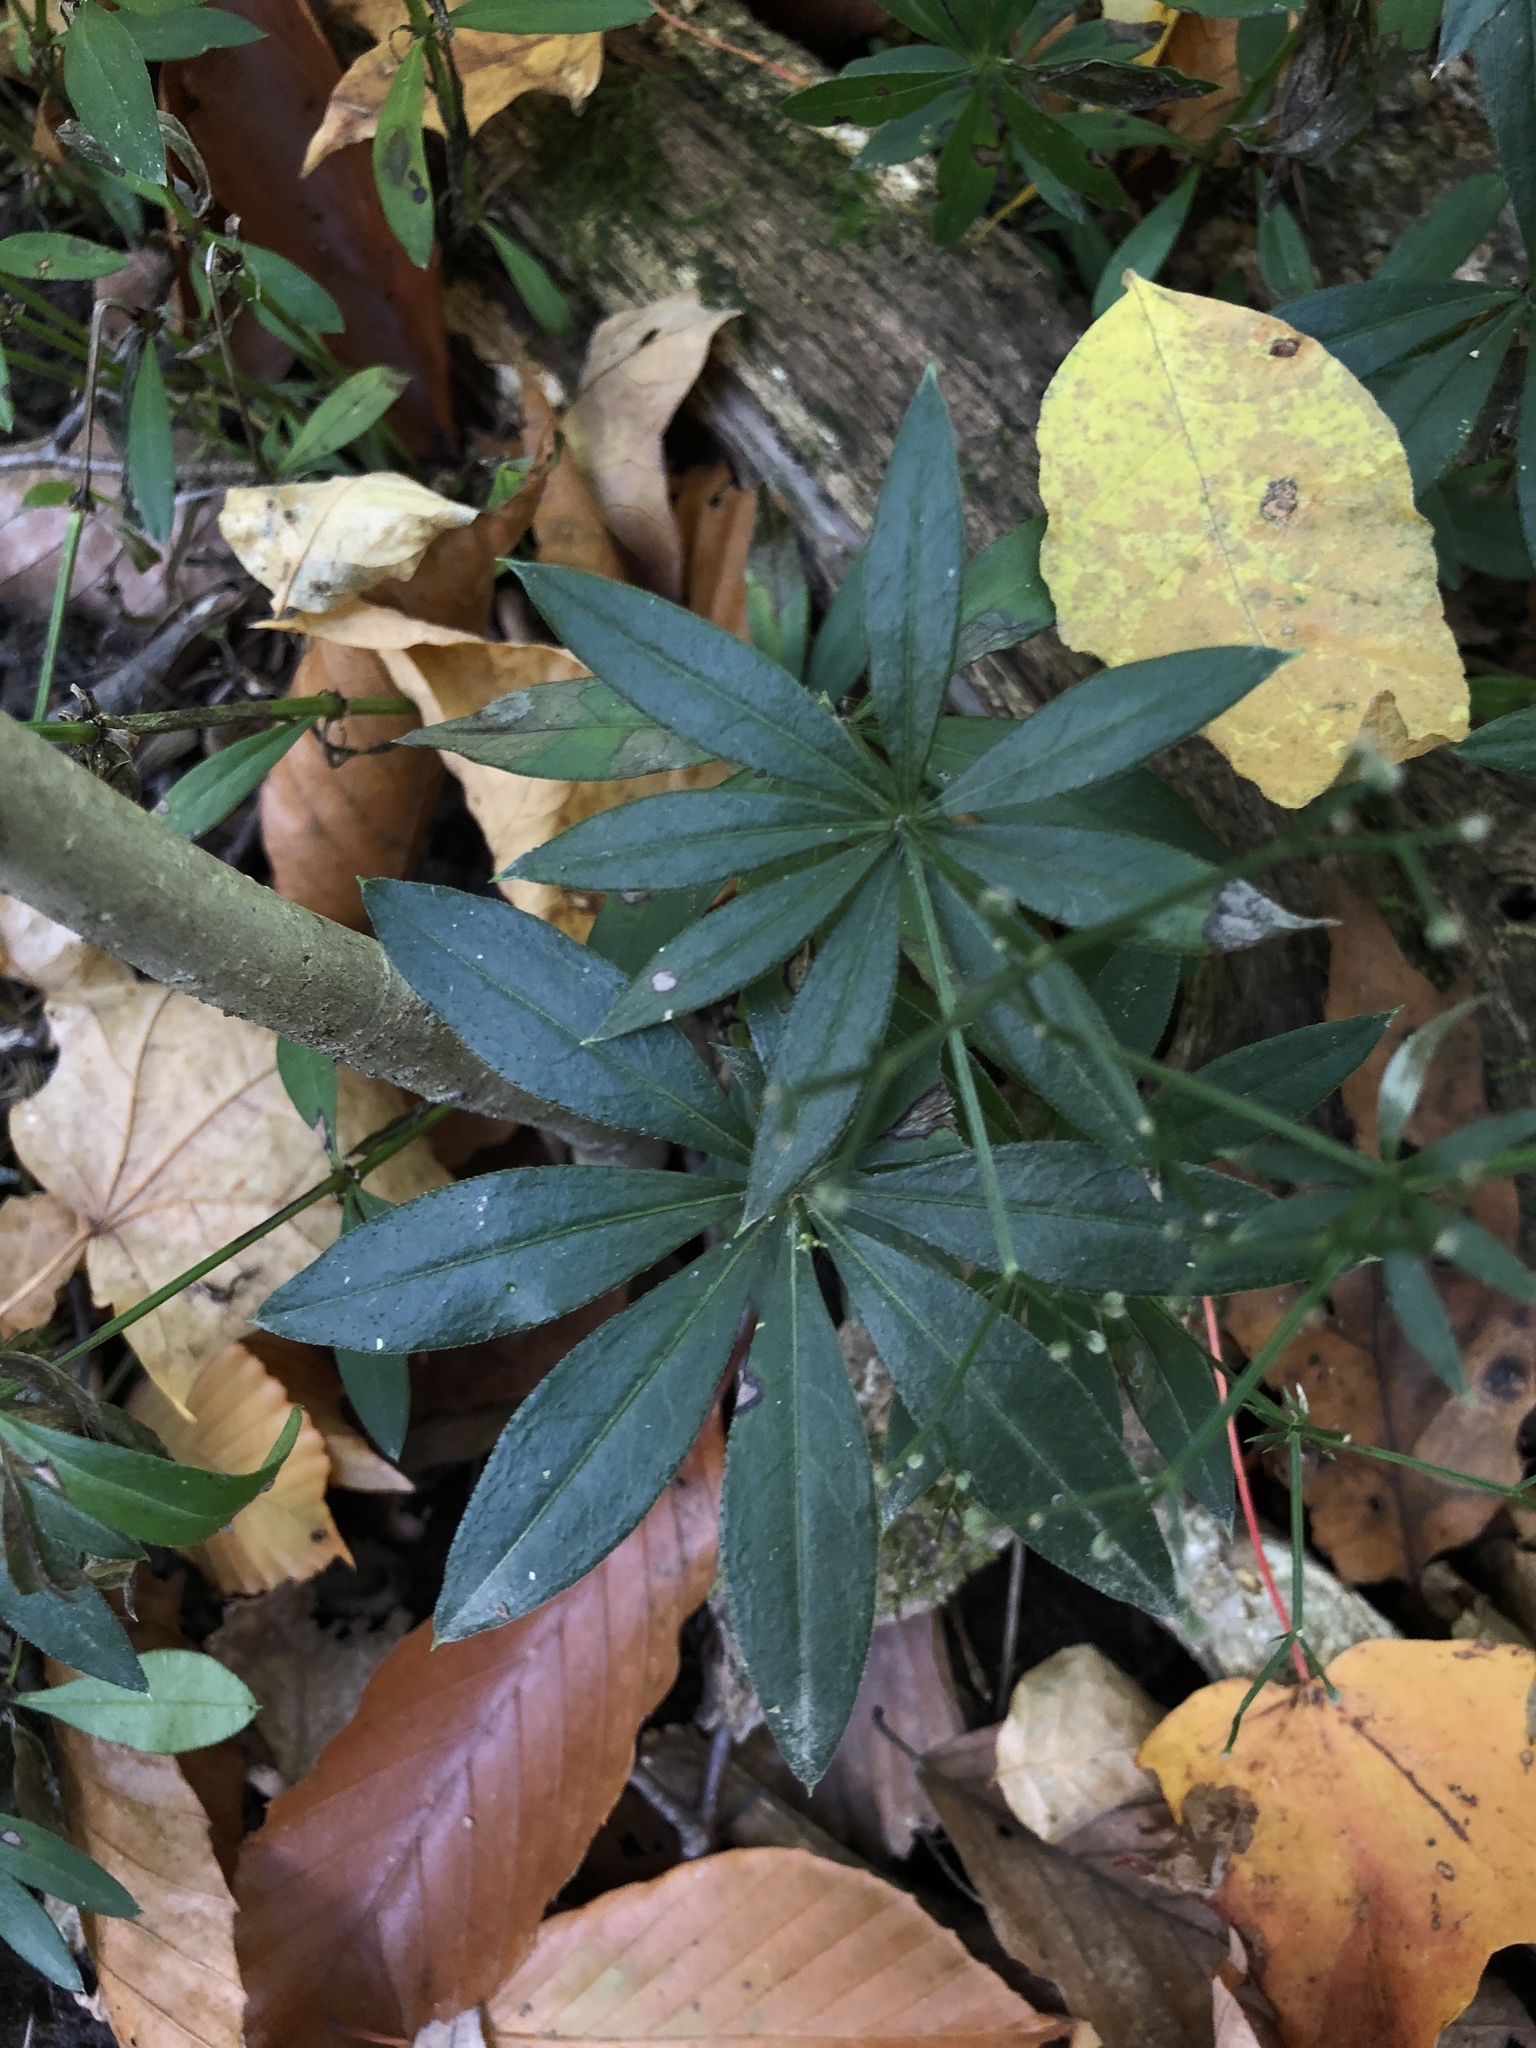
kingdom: Plantae
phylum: Tracheophyta
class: Magnoliopsida
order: Gentianales
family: Rubiaceae
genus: Galium
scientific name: Galium odoratum
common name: Sweet woodruff
